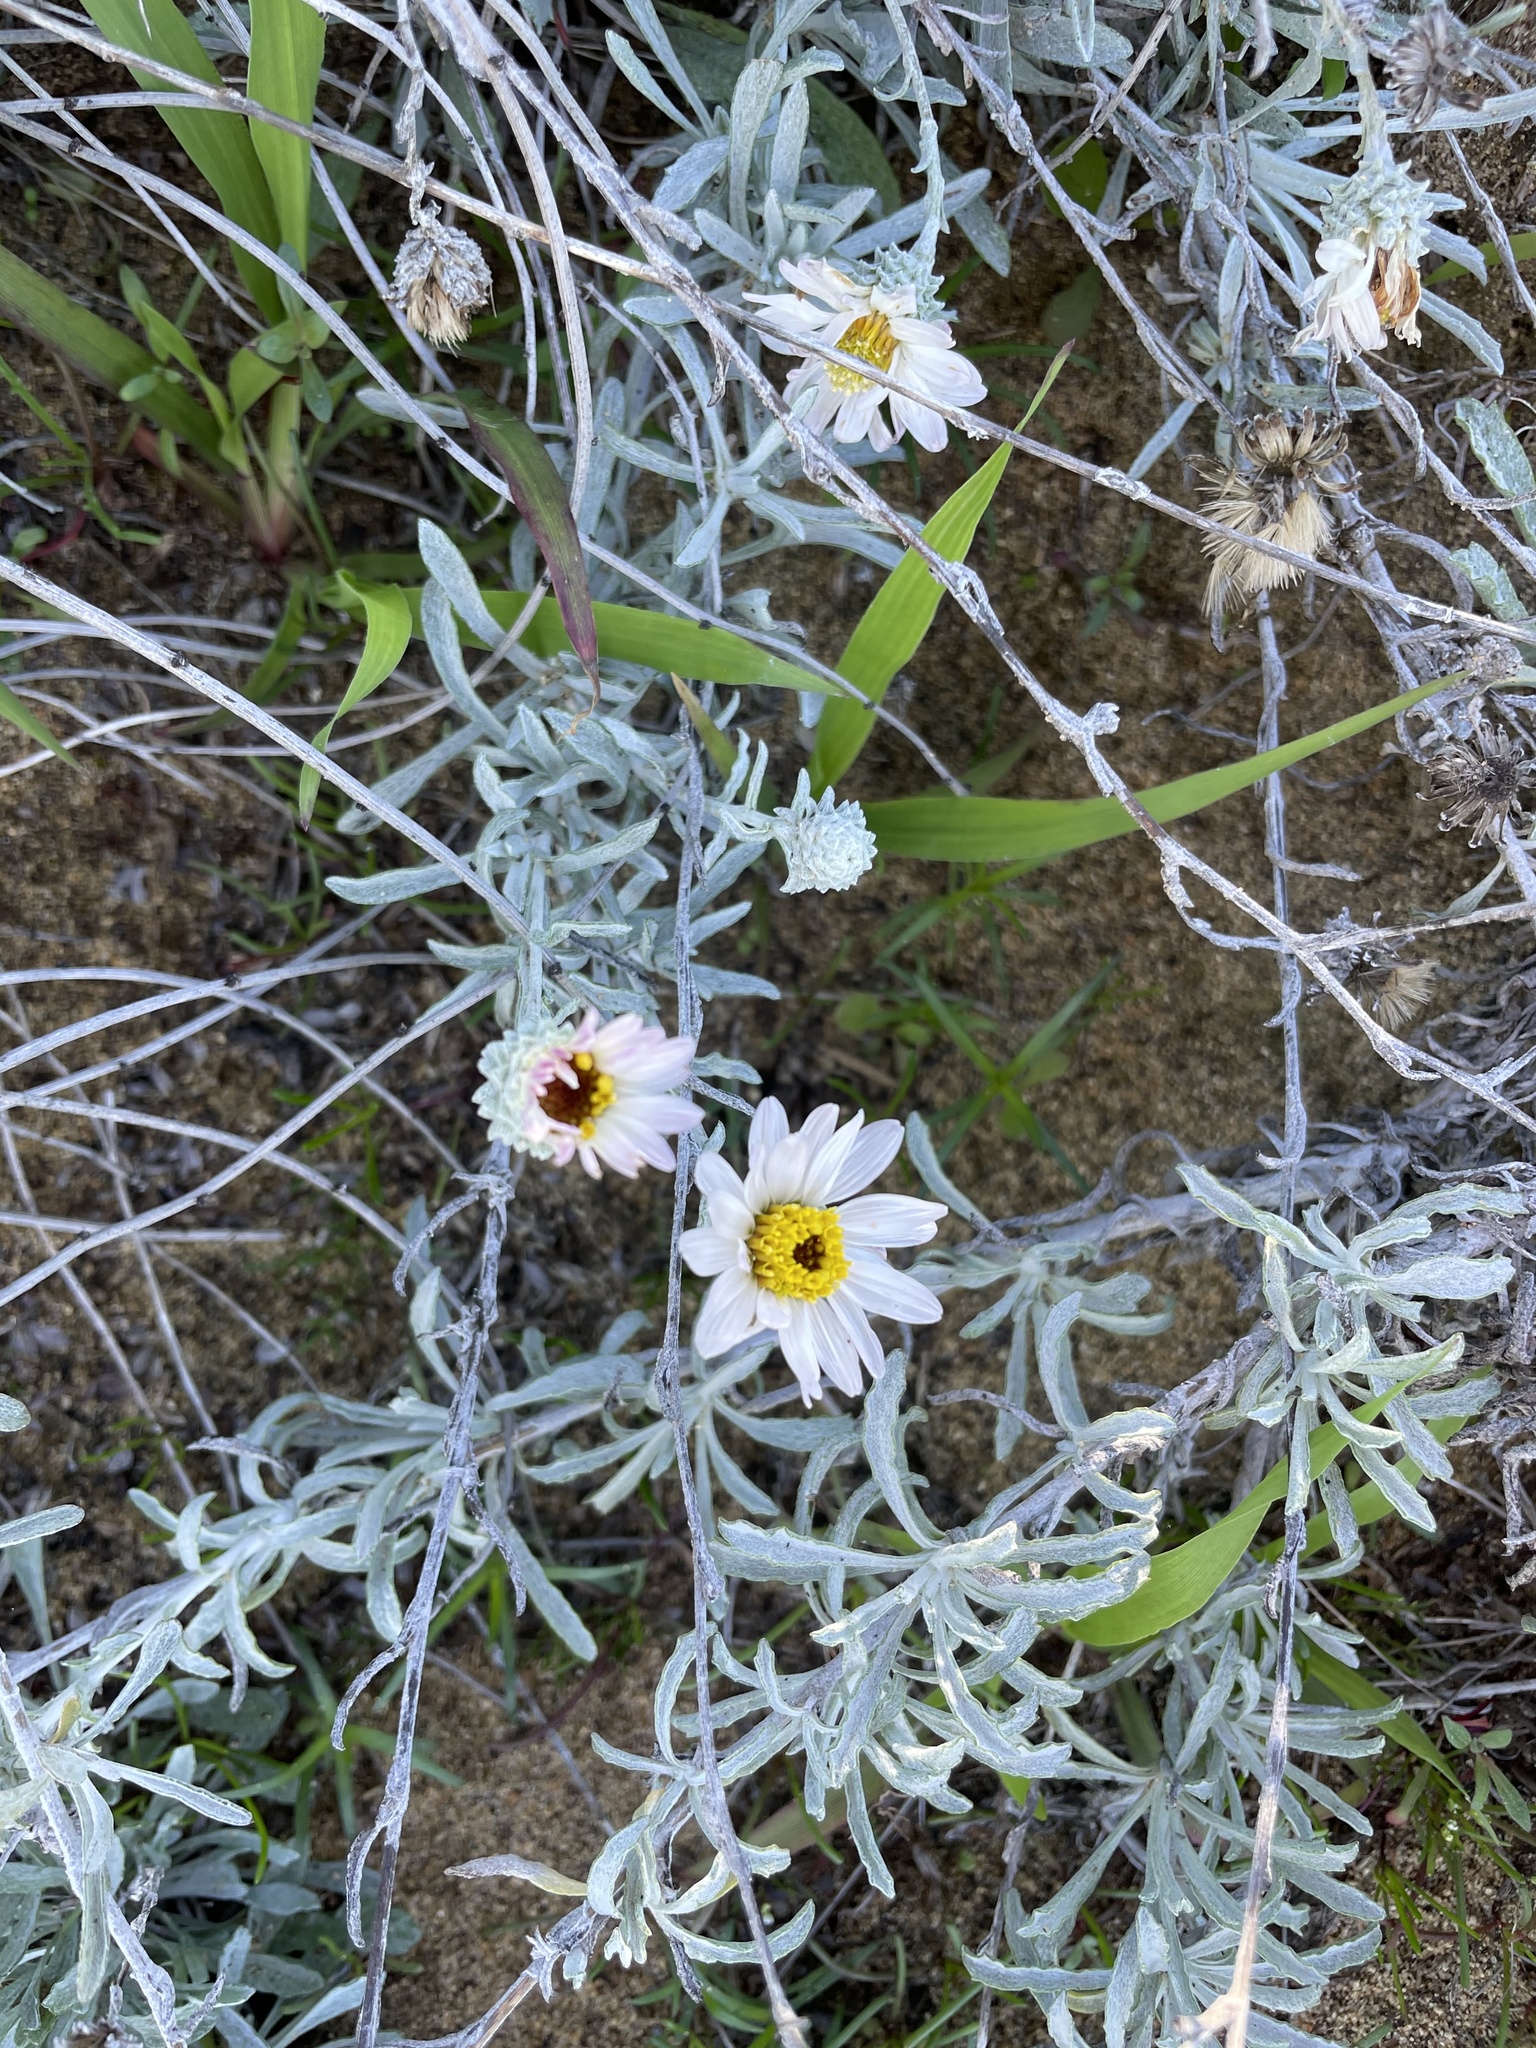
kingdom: Plantae
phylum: Tracheophyta
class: Magnoliopsida
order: Asterales
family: Asteraceae
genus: Corethrogyne
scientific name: Corethrogyne filaginifolia
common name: Sand-aster
